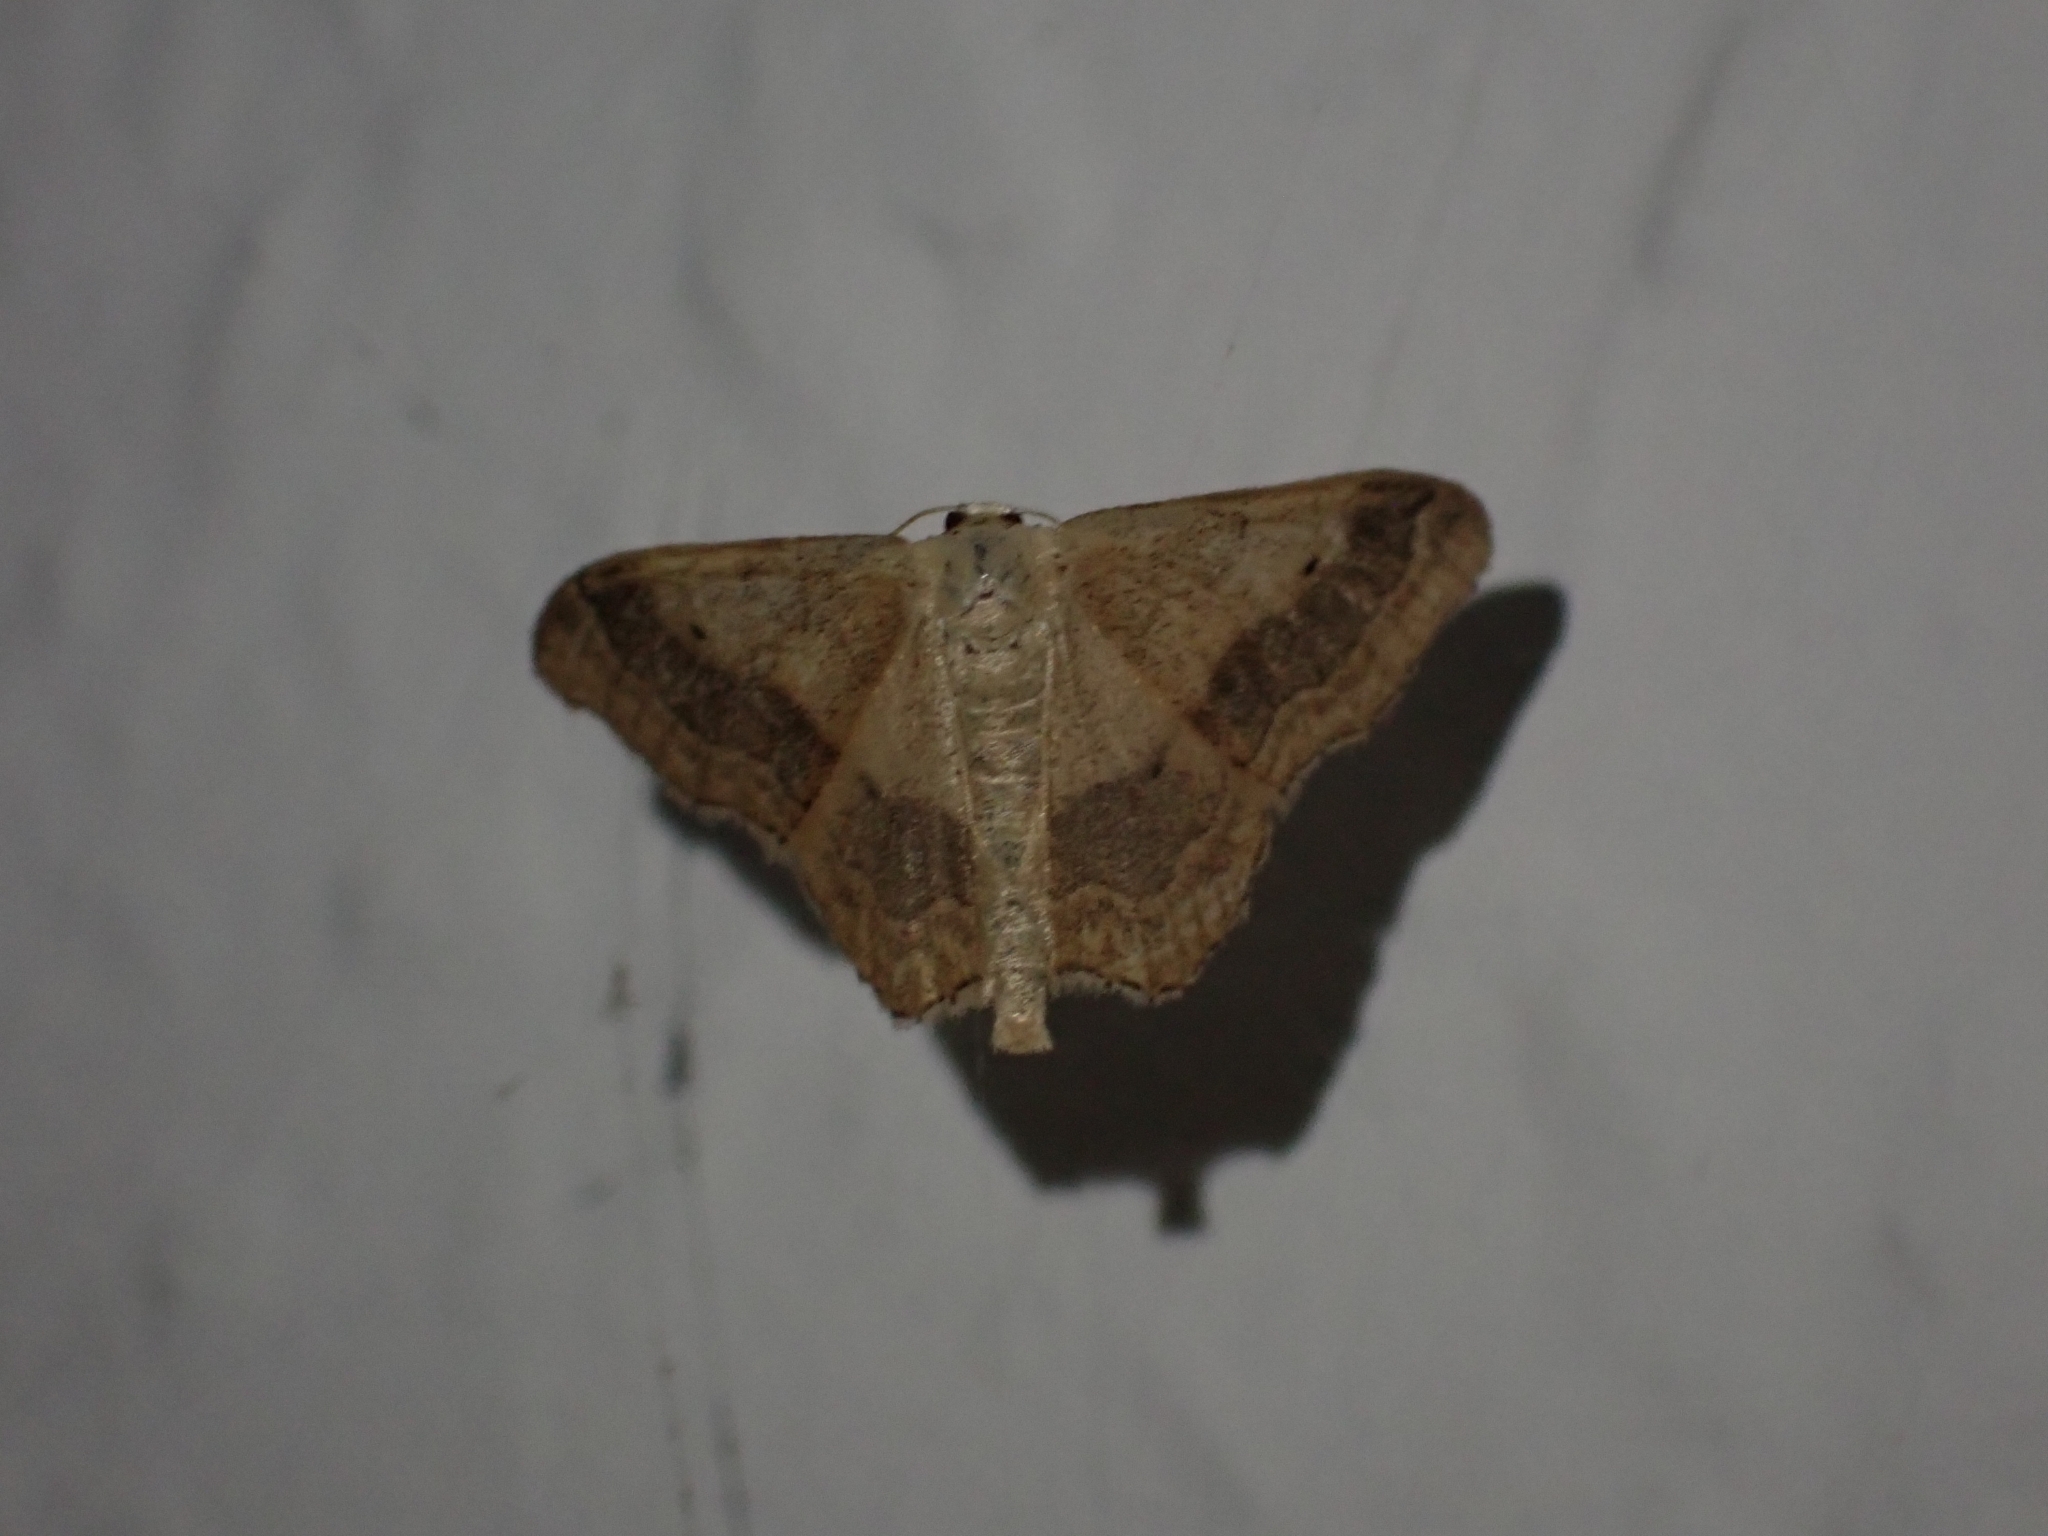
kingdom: Animalia
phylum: Arthropoda
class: Insecta
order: Lepidoptera
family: Geometridae
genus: Idaea
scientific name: Idaea aversata
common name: Riband wave
